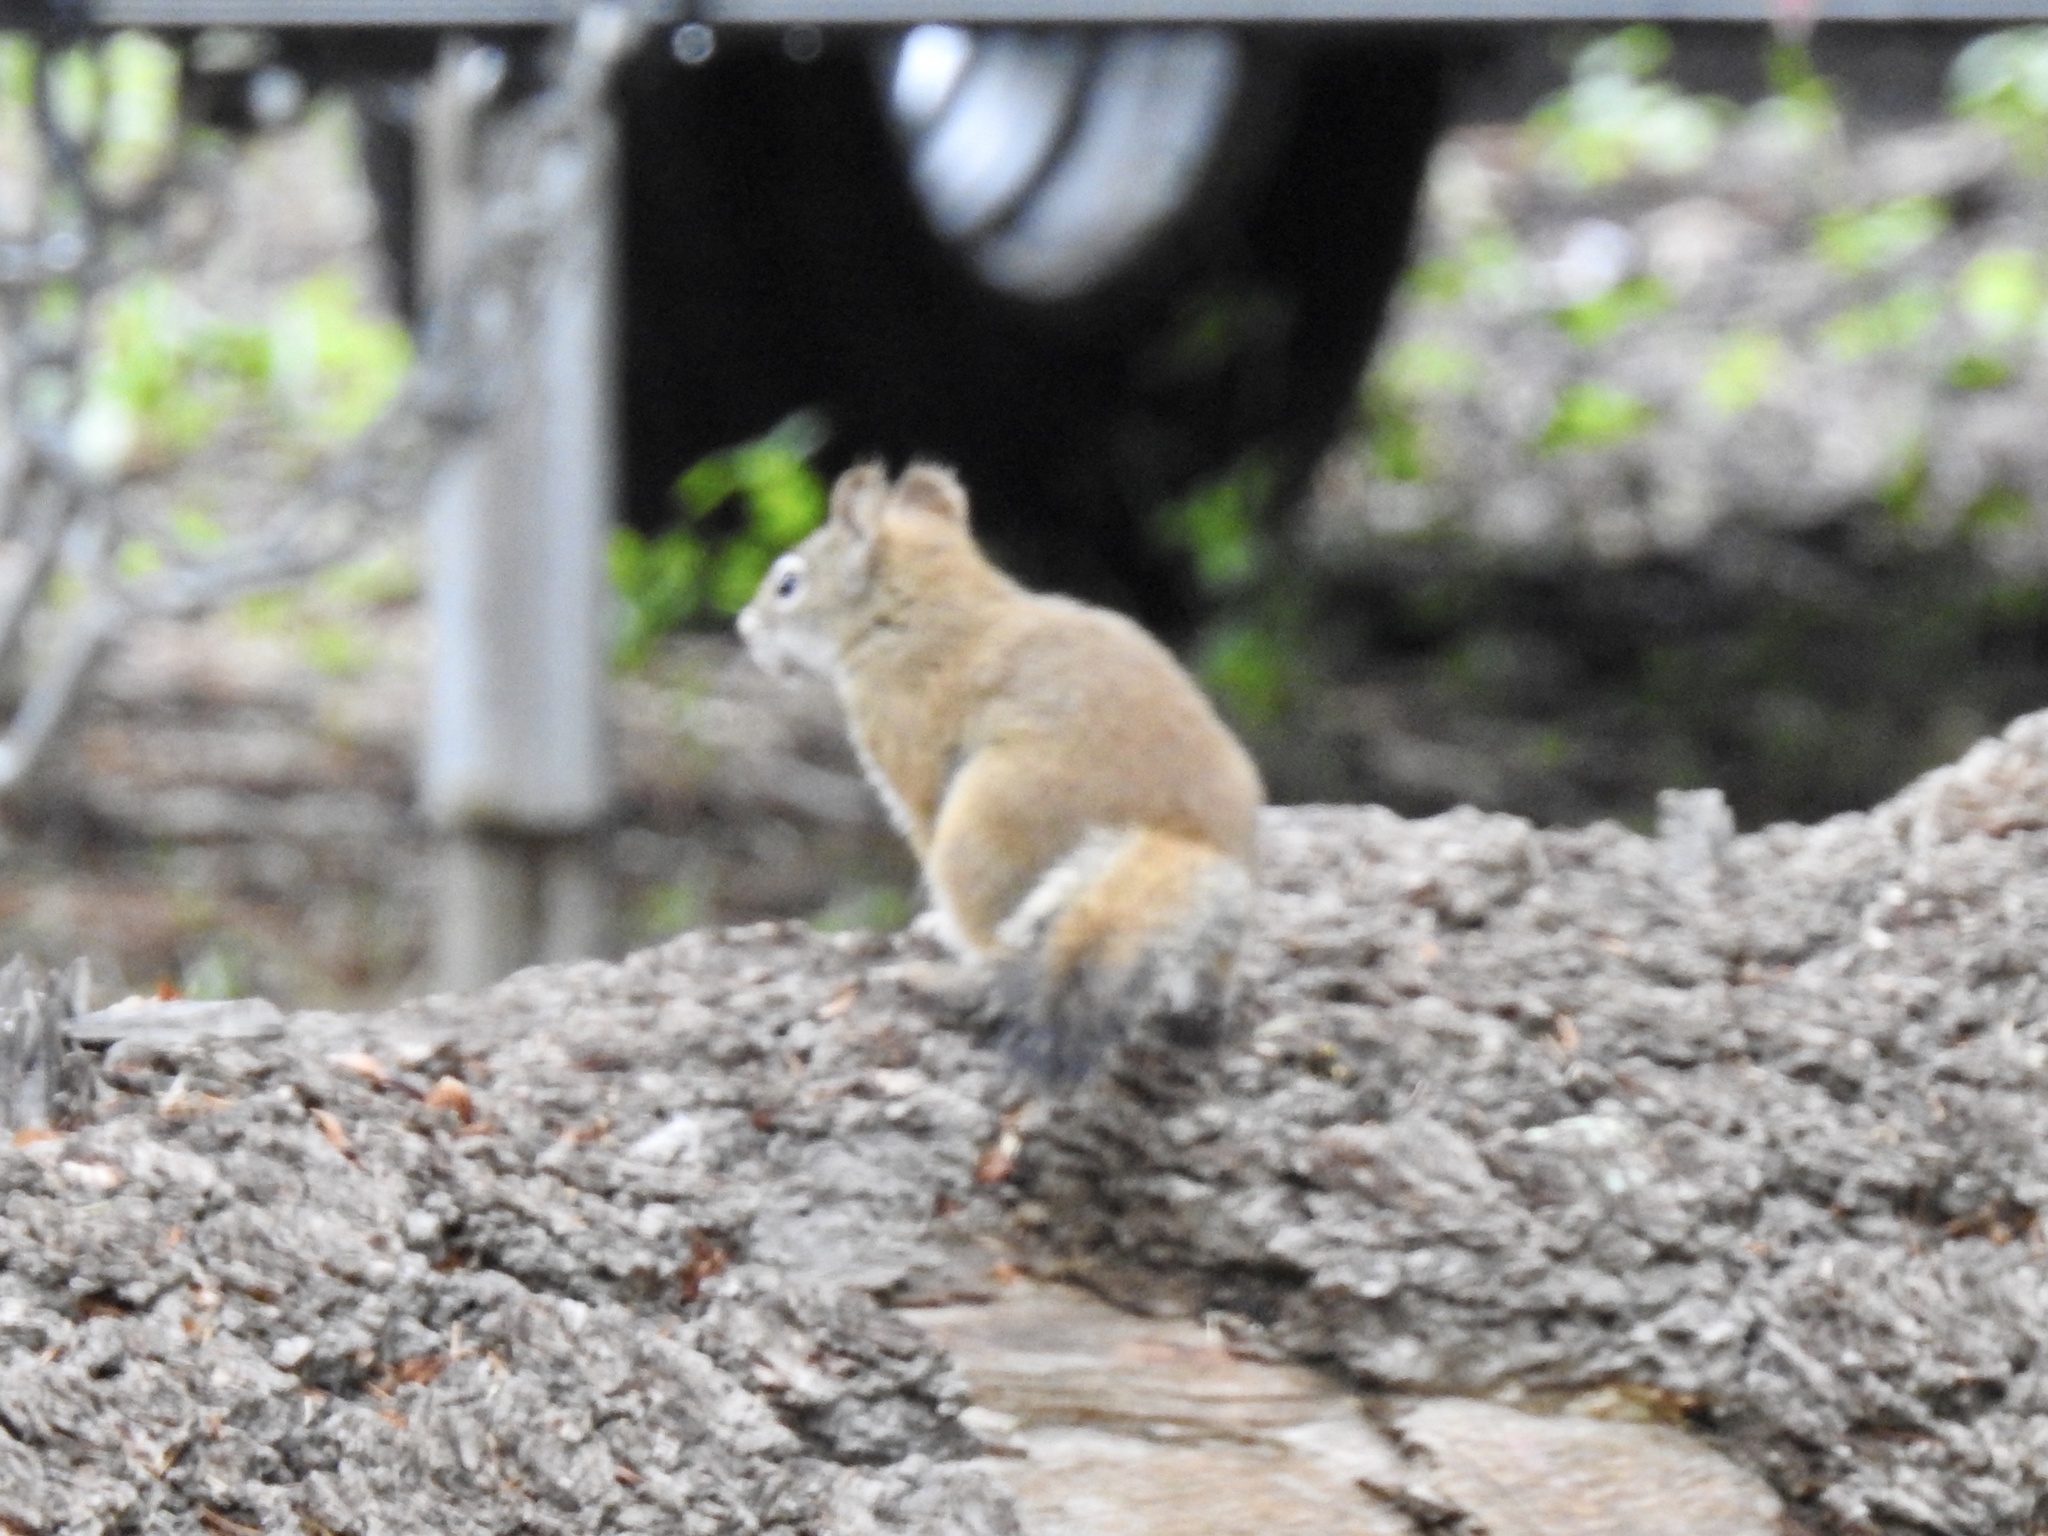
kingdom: Animalia
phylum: Chordata
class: Mammalia
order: Rodentia
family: Sciuridae
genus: Tamiasciurus
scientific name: Tamiasciurus hudsonicus
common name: Red squirrel
